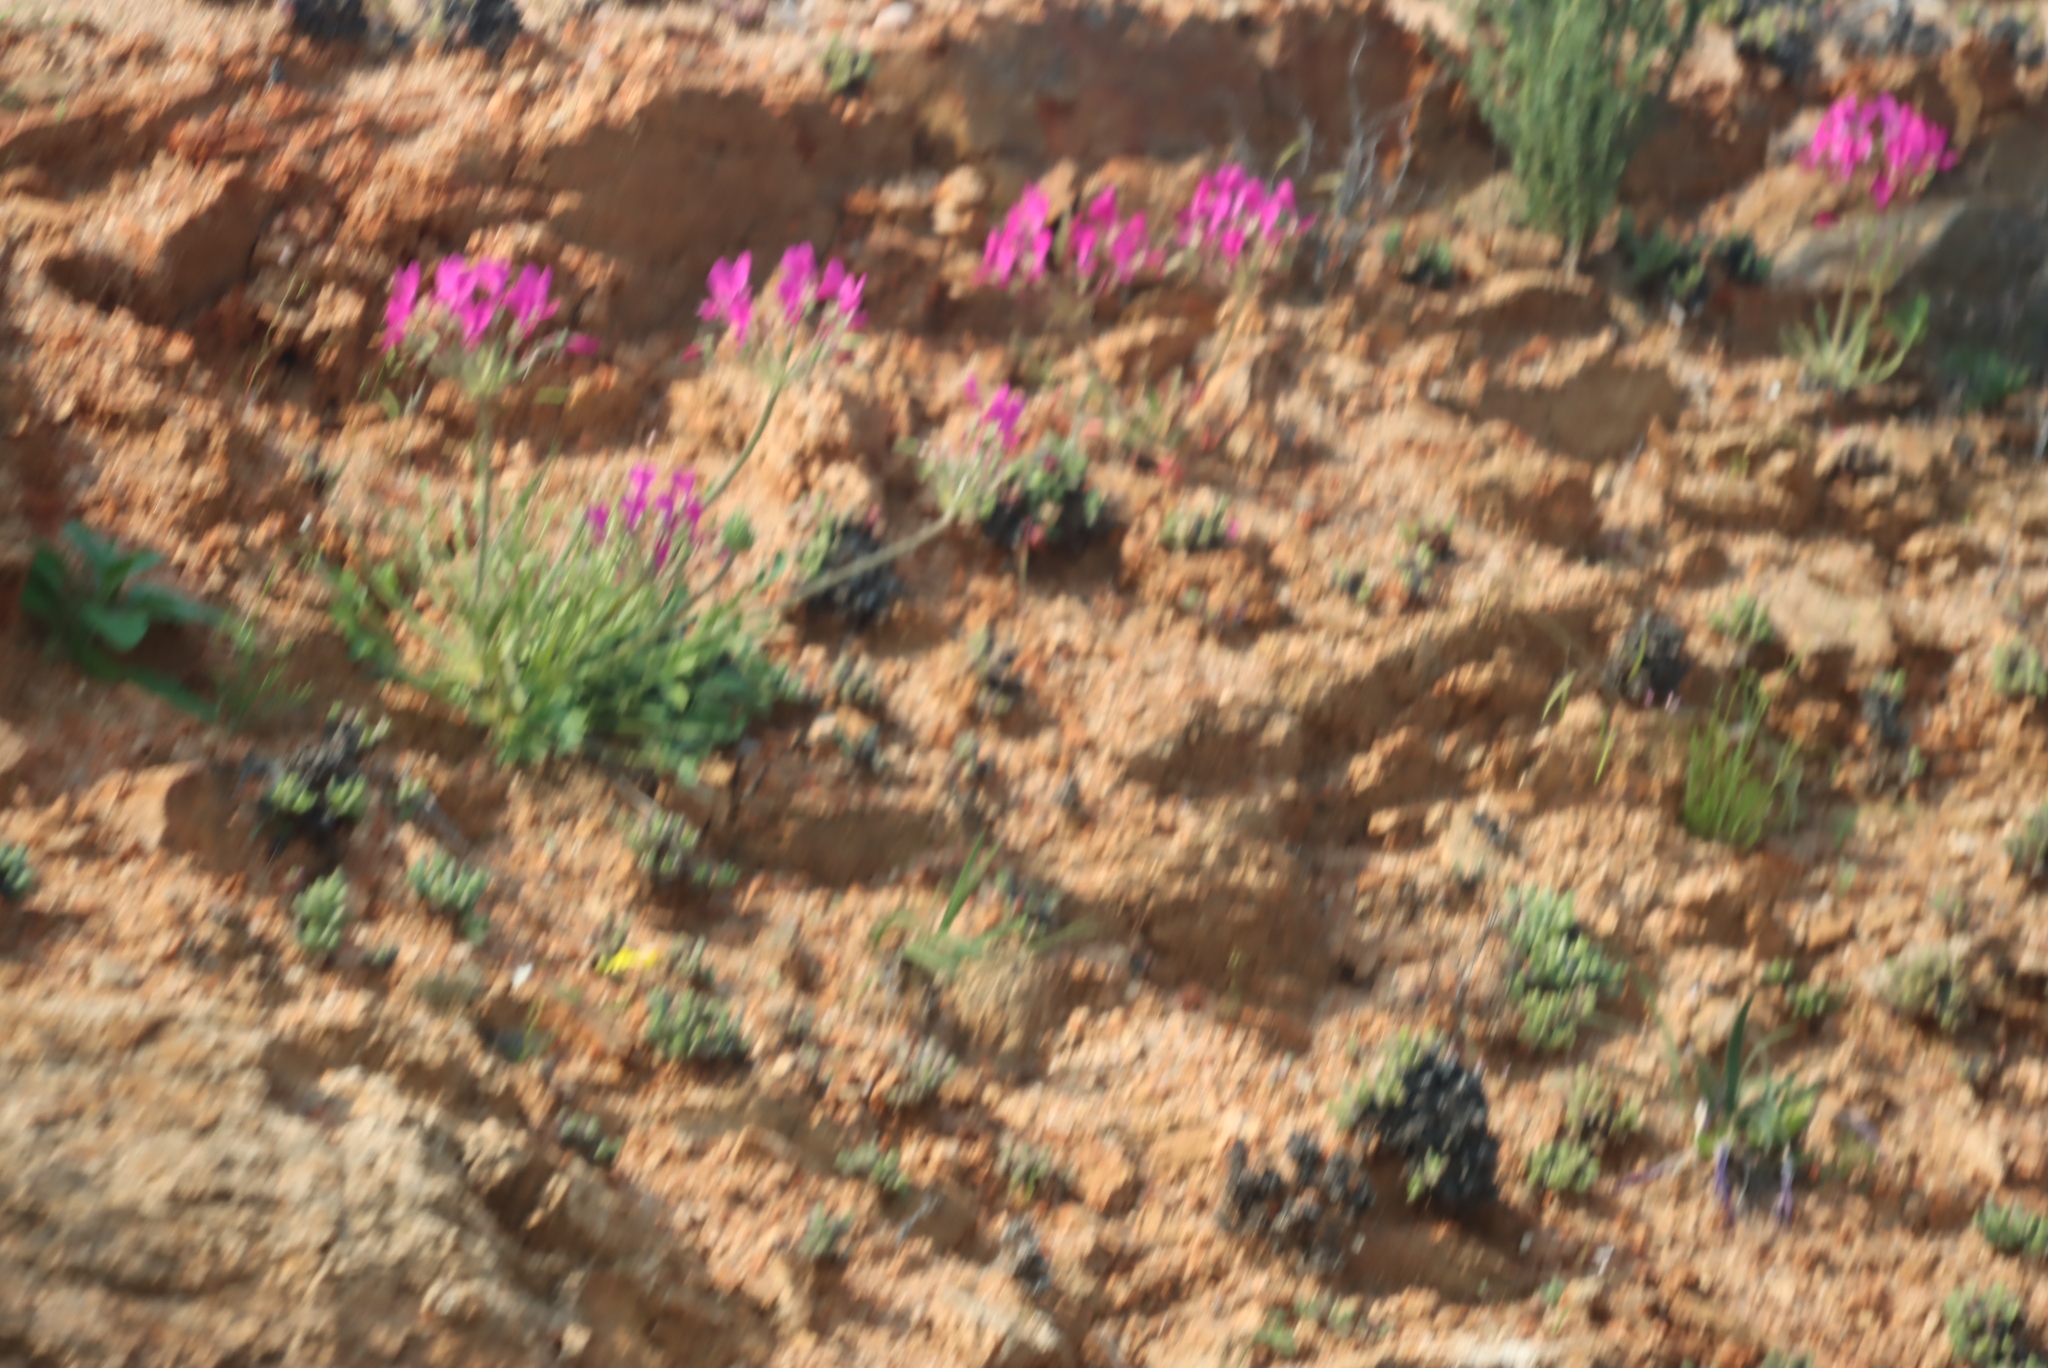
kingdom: Plantae
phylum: Tracheophyta
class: Magnoliopsida
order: Geraniales
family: Geraniaceae
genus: Pelargonium
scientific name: Pelargonium incrassatum
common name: Namaqualand beauty
